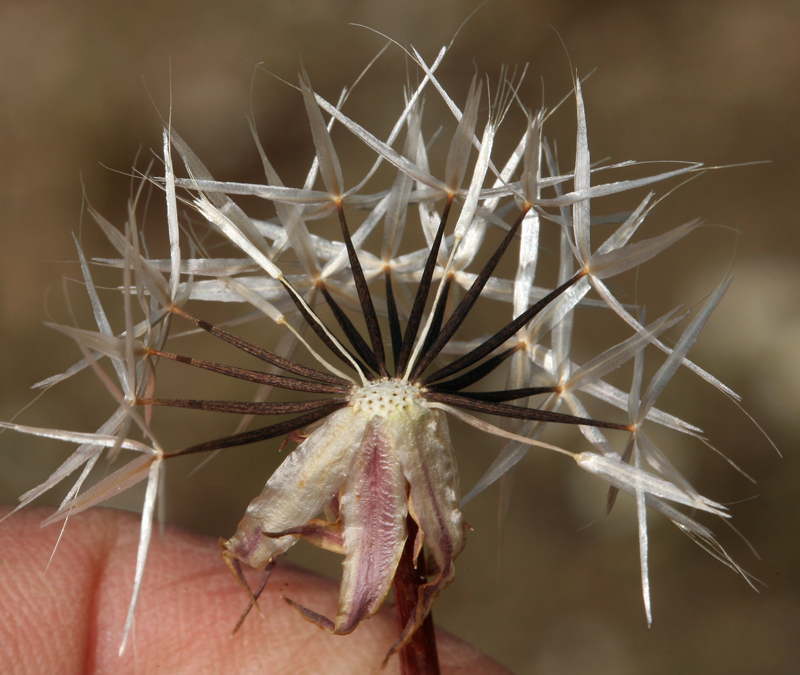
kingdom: Plantae
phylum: Tracheophyta
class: Magnoliopsida
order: Asterales
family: Asteraceae
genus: Microseris
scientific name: Microseris lindleyi
